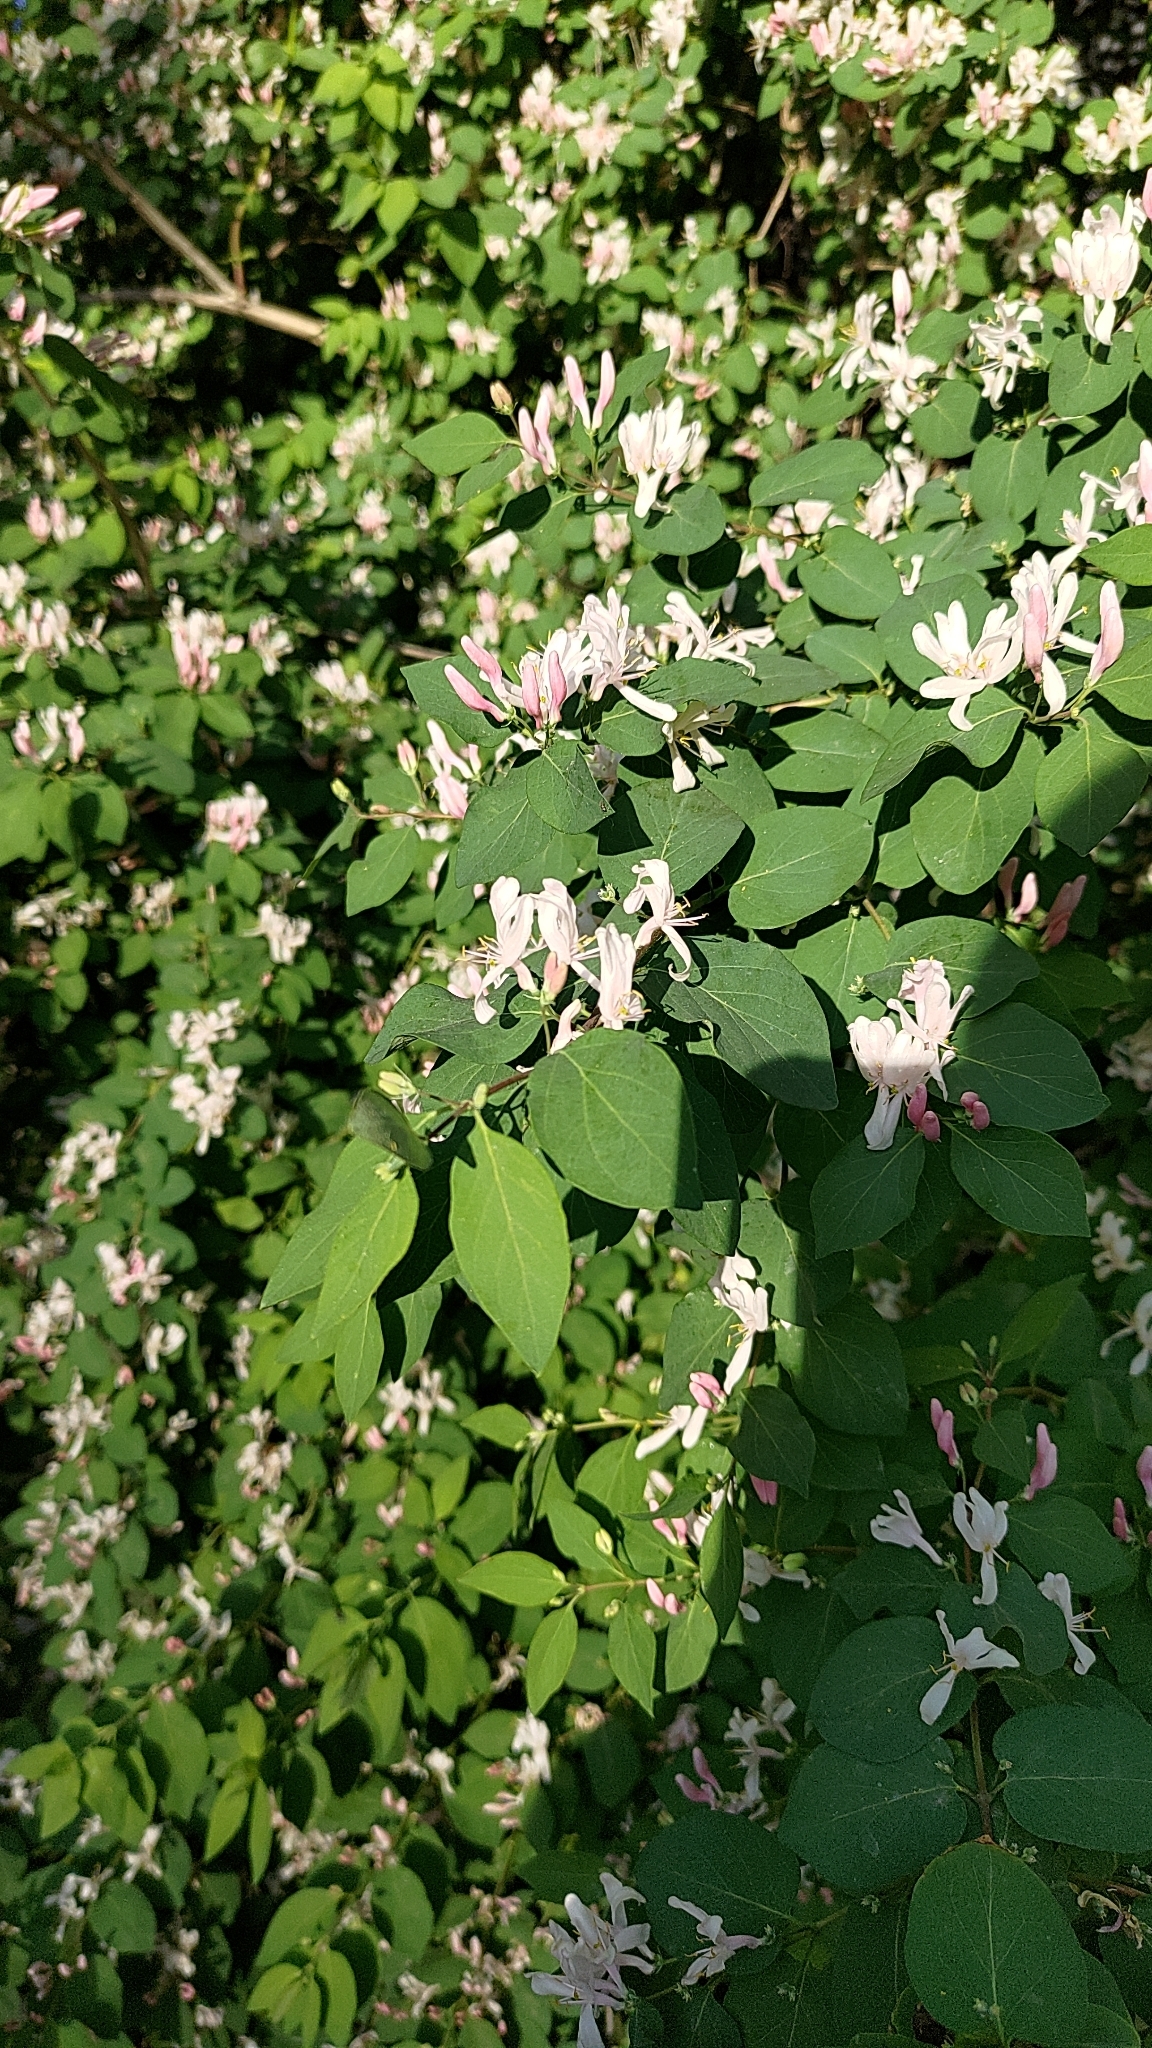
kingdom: Plantae
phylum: Tracheophyta
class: Magnoliopsida
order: Dipsacales
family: Caprifoliaceae
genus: Lonicera
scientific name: Lonicera tatarica
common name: Tatarian honeysuckle
